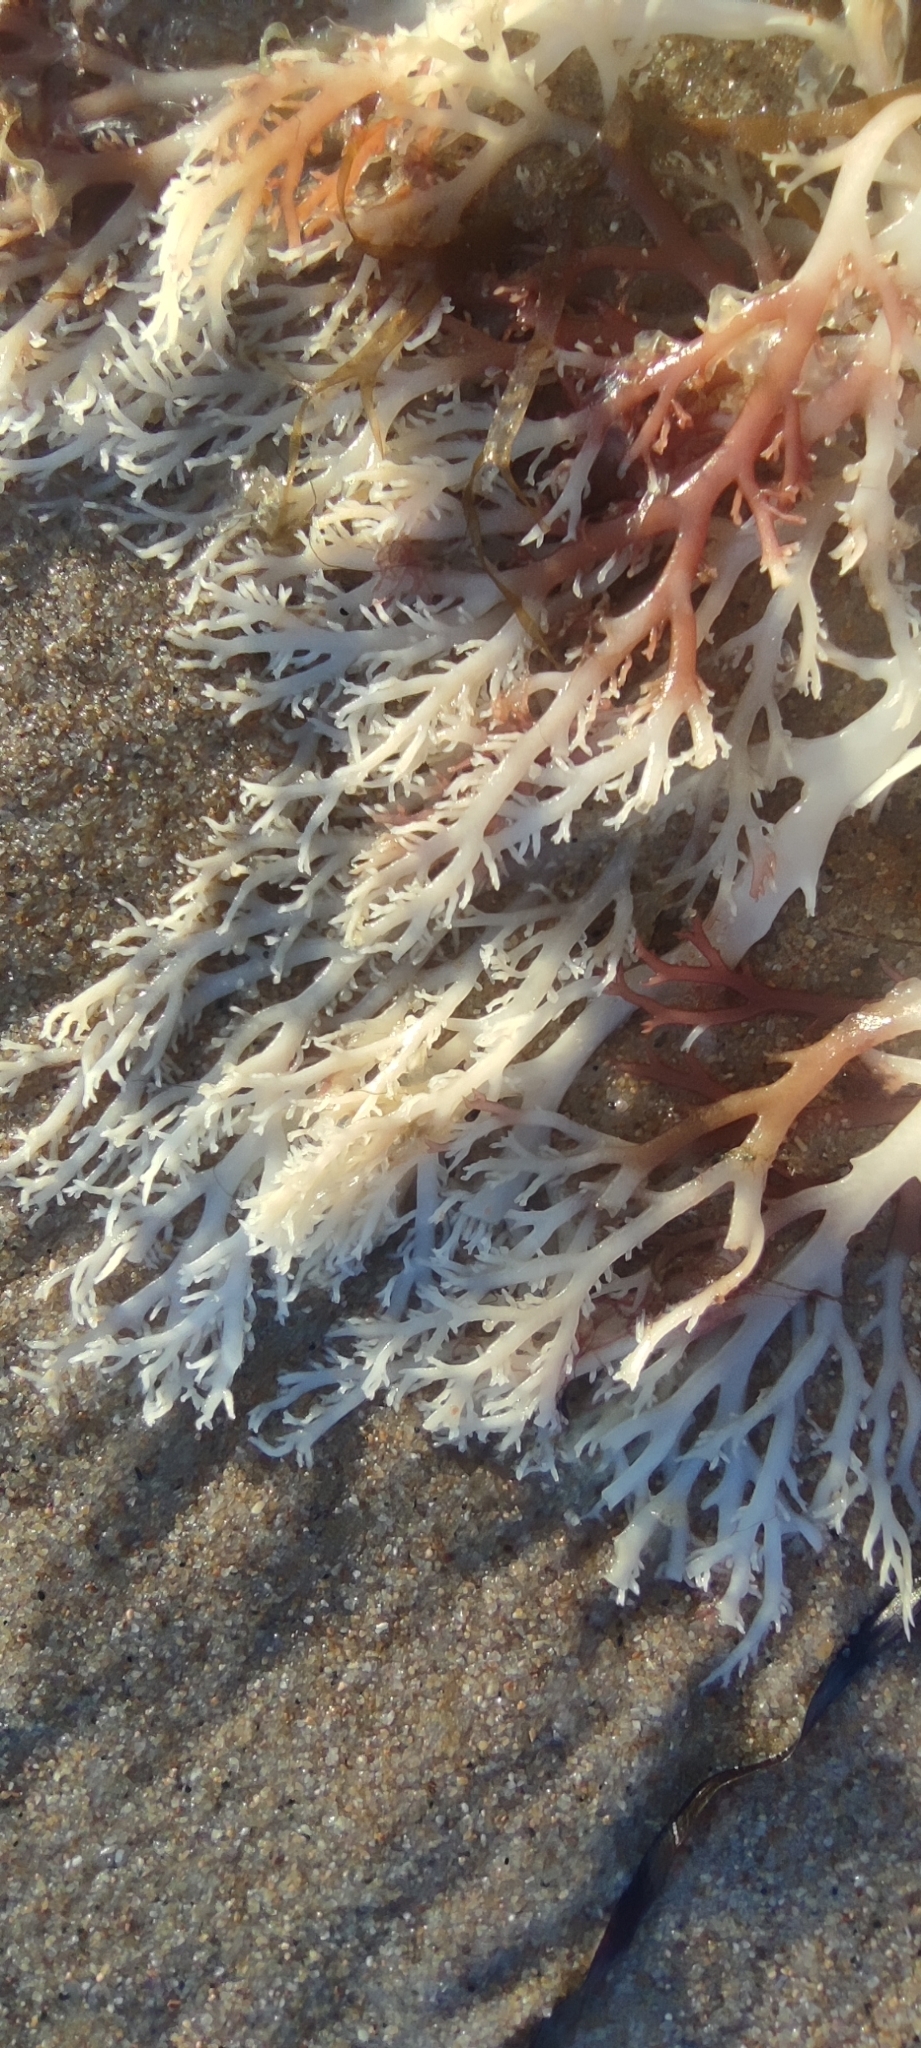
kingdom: Plantae
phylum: Rhodophyta
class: Florideophyceae
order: Gigartinales
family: Sphaerococcaceae
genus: Sphaerococcus
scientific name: Sphaerococcus coronopifolius
